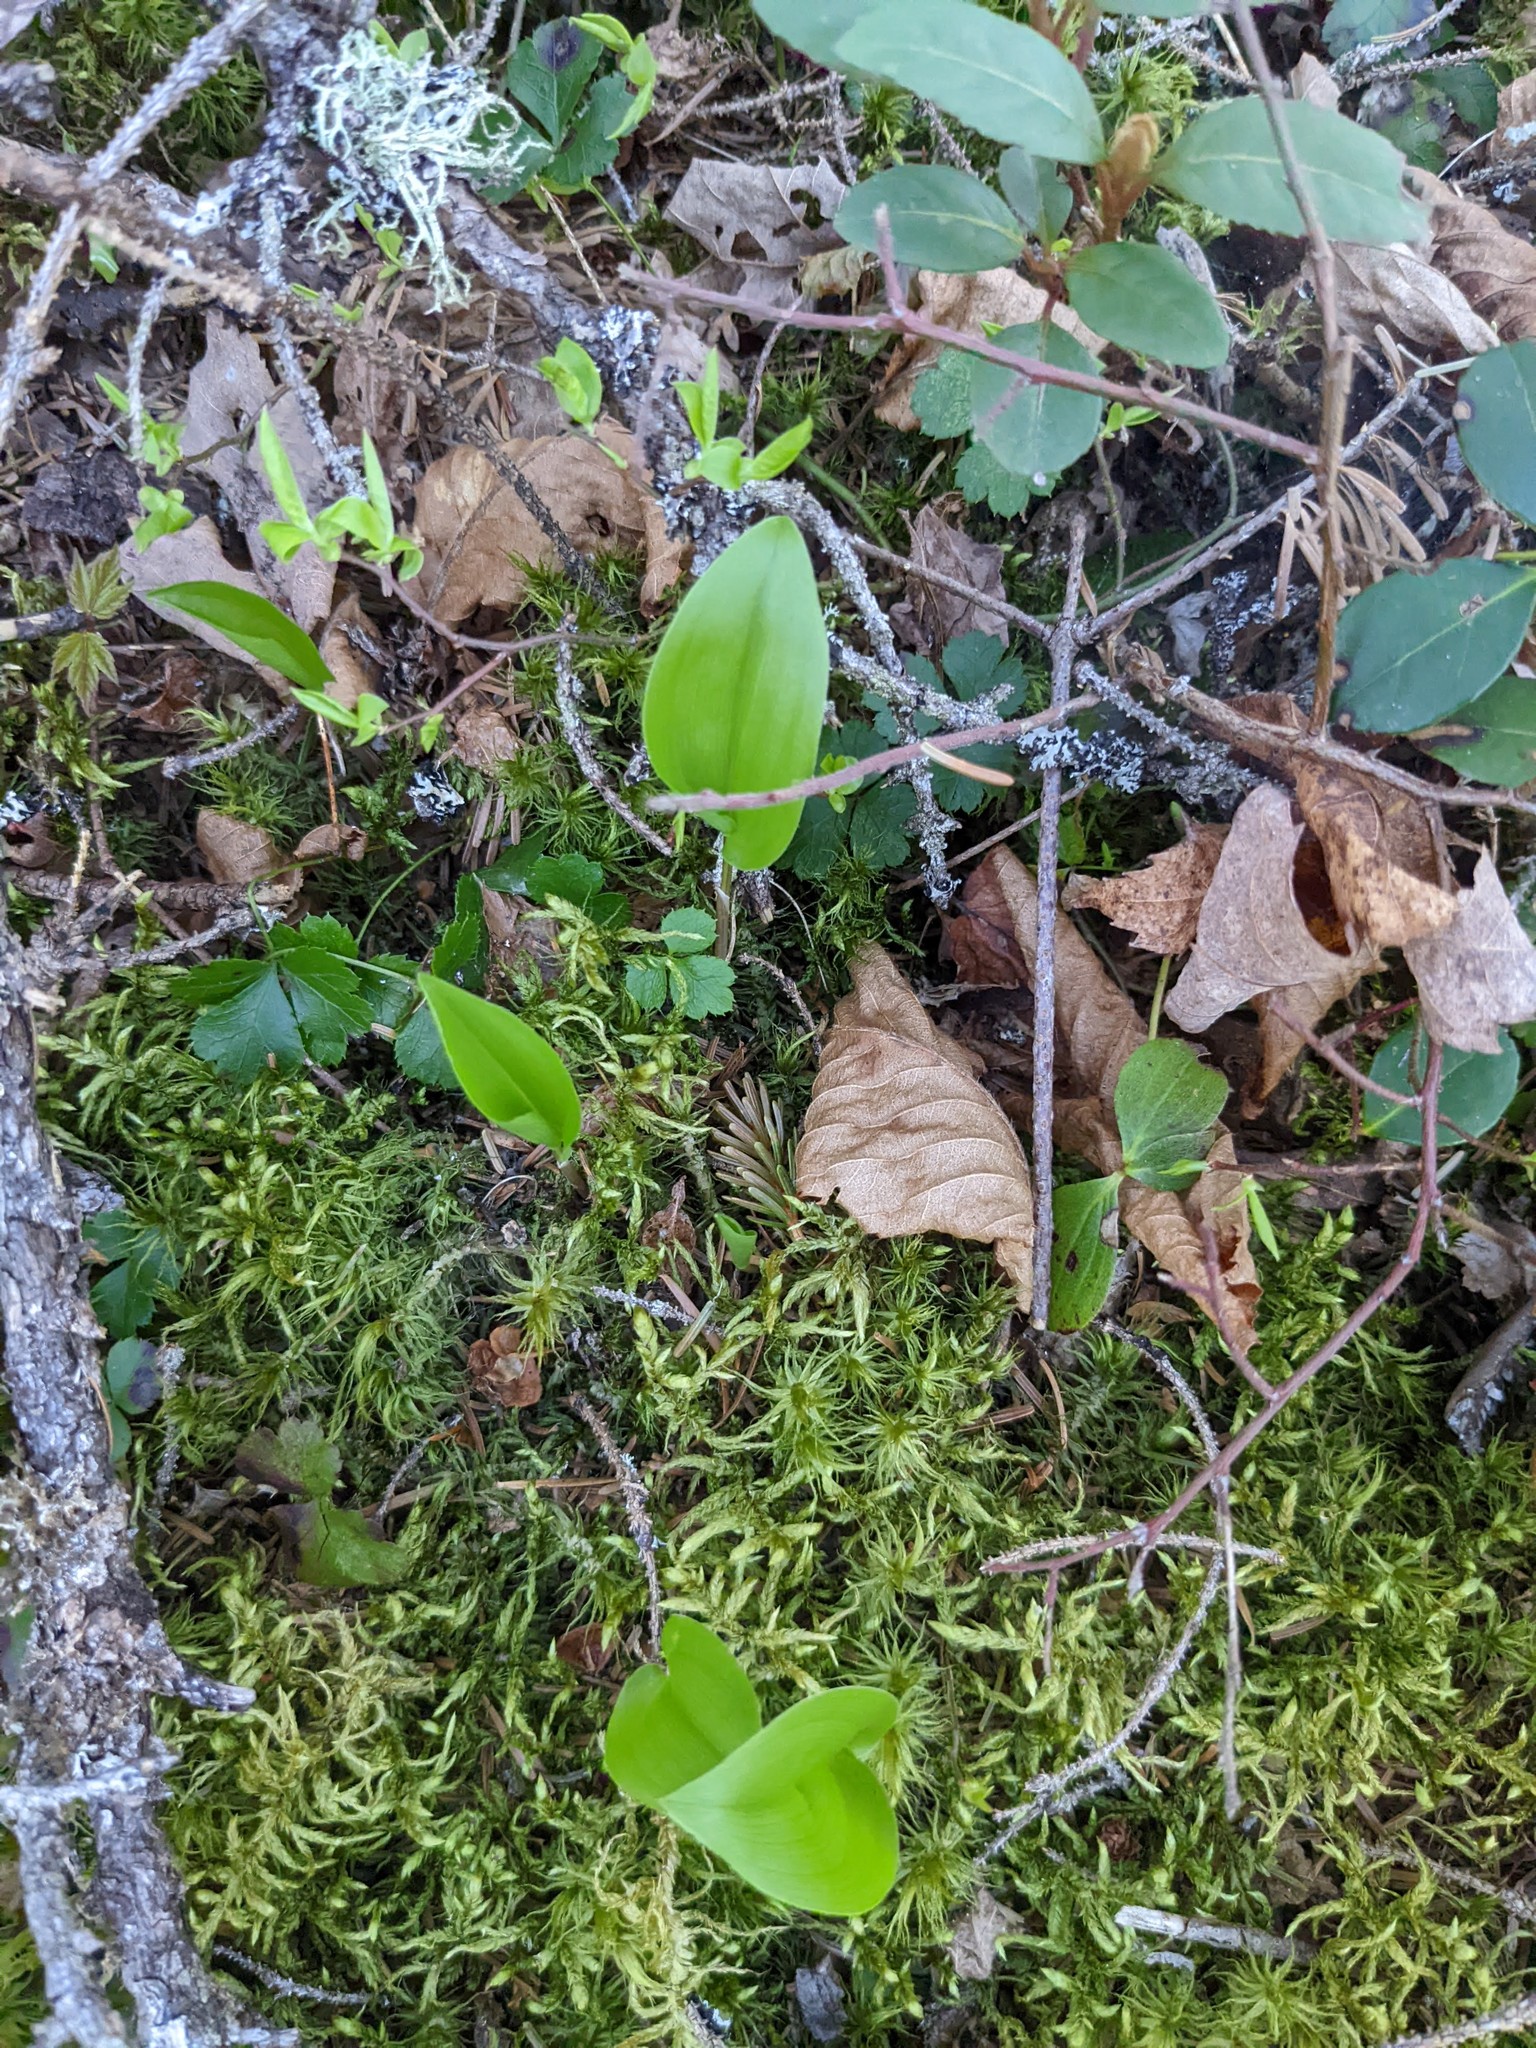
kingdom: Plantae
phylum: Tracheophyta
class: Liliopsida
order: Asparagales
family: Asparagaceae
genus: Maianthemum
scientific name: Maianthemum canadense
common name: False lily-of-the-valley
